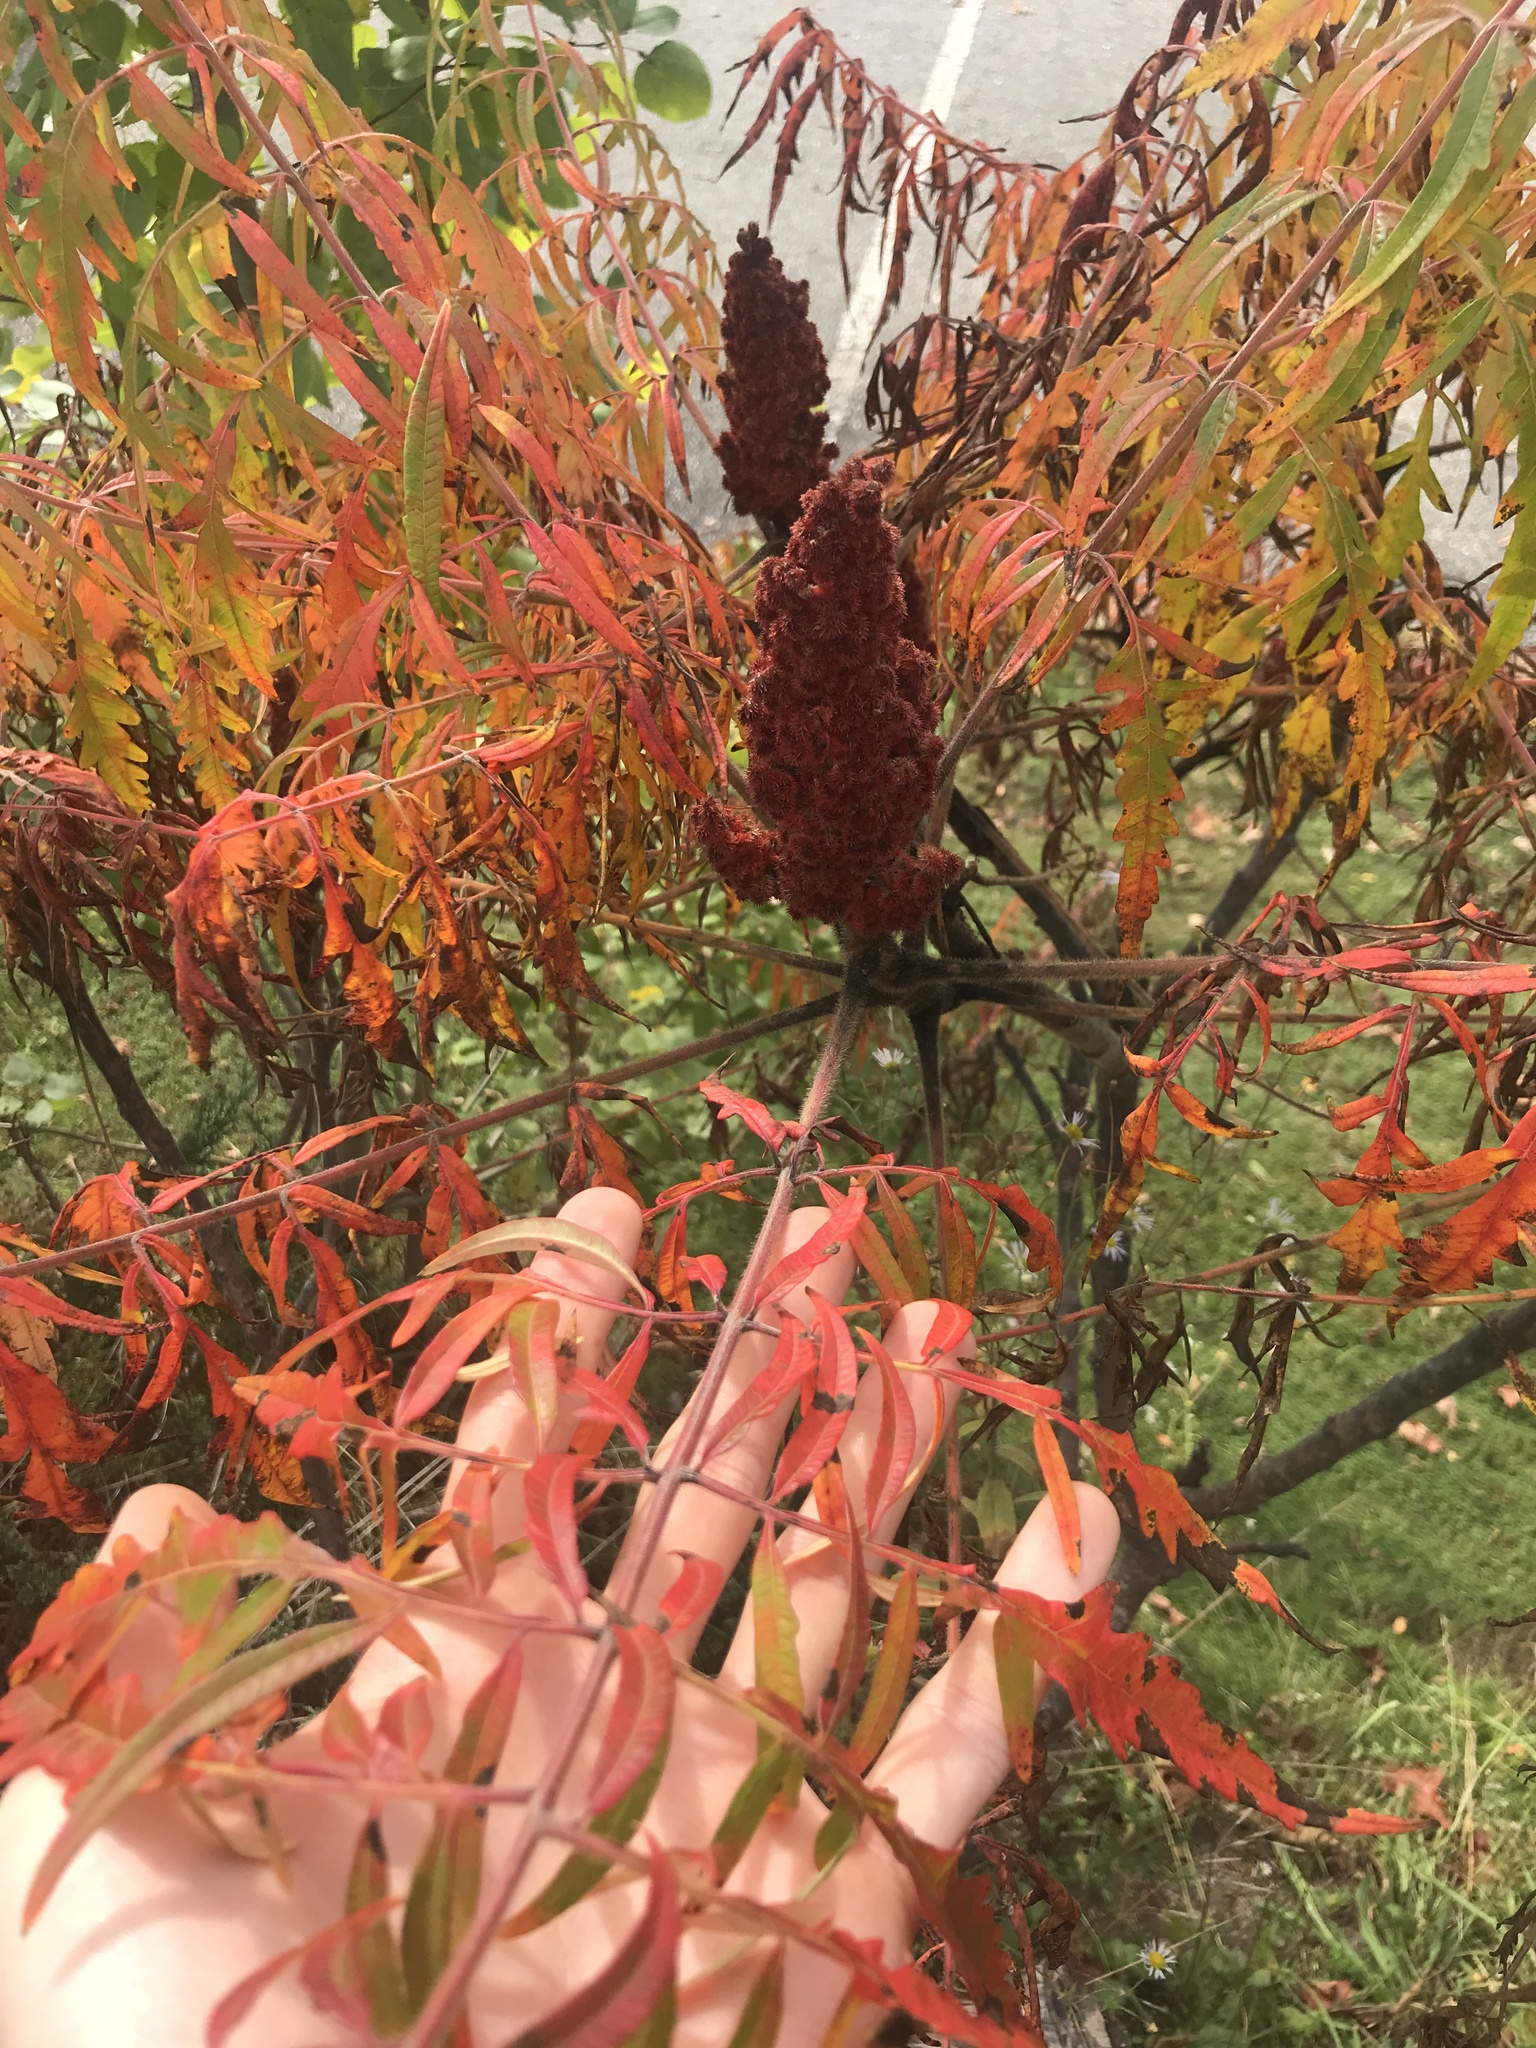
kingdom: Plantae
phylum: Tracheophyta
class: Magnoliopsida
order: Sapindales
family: Anacardiaceae
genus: Rhus
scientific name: Rhus typhina
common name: Staghorn sumac
